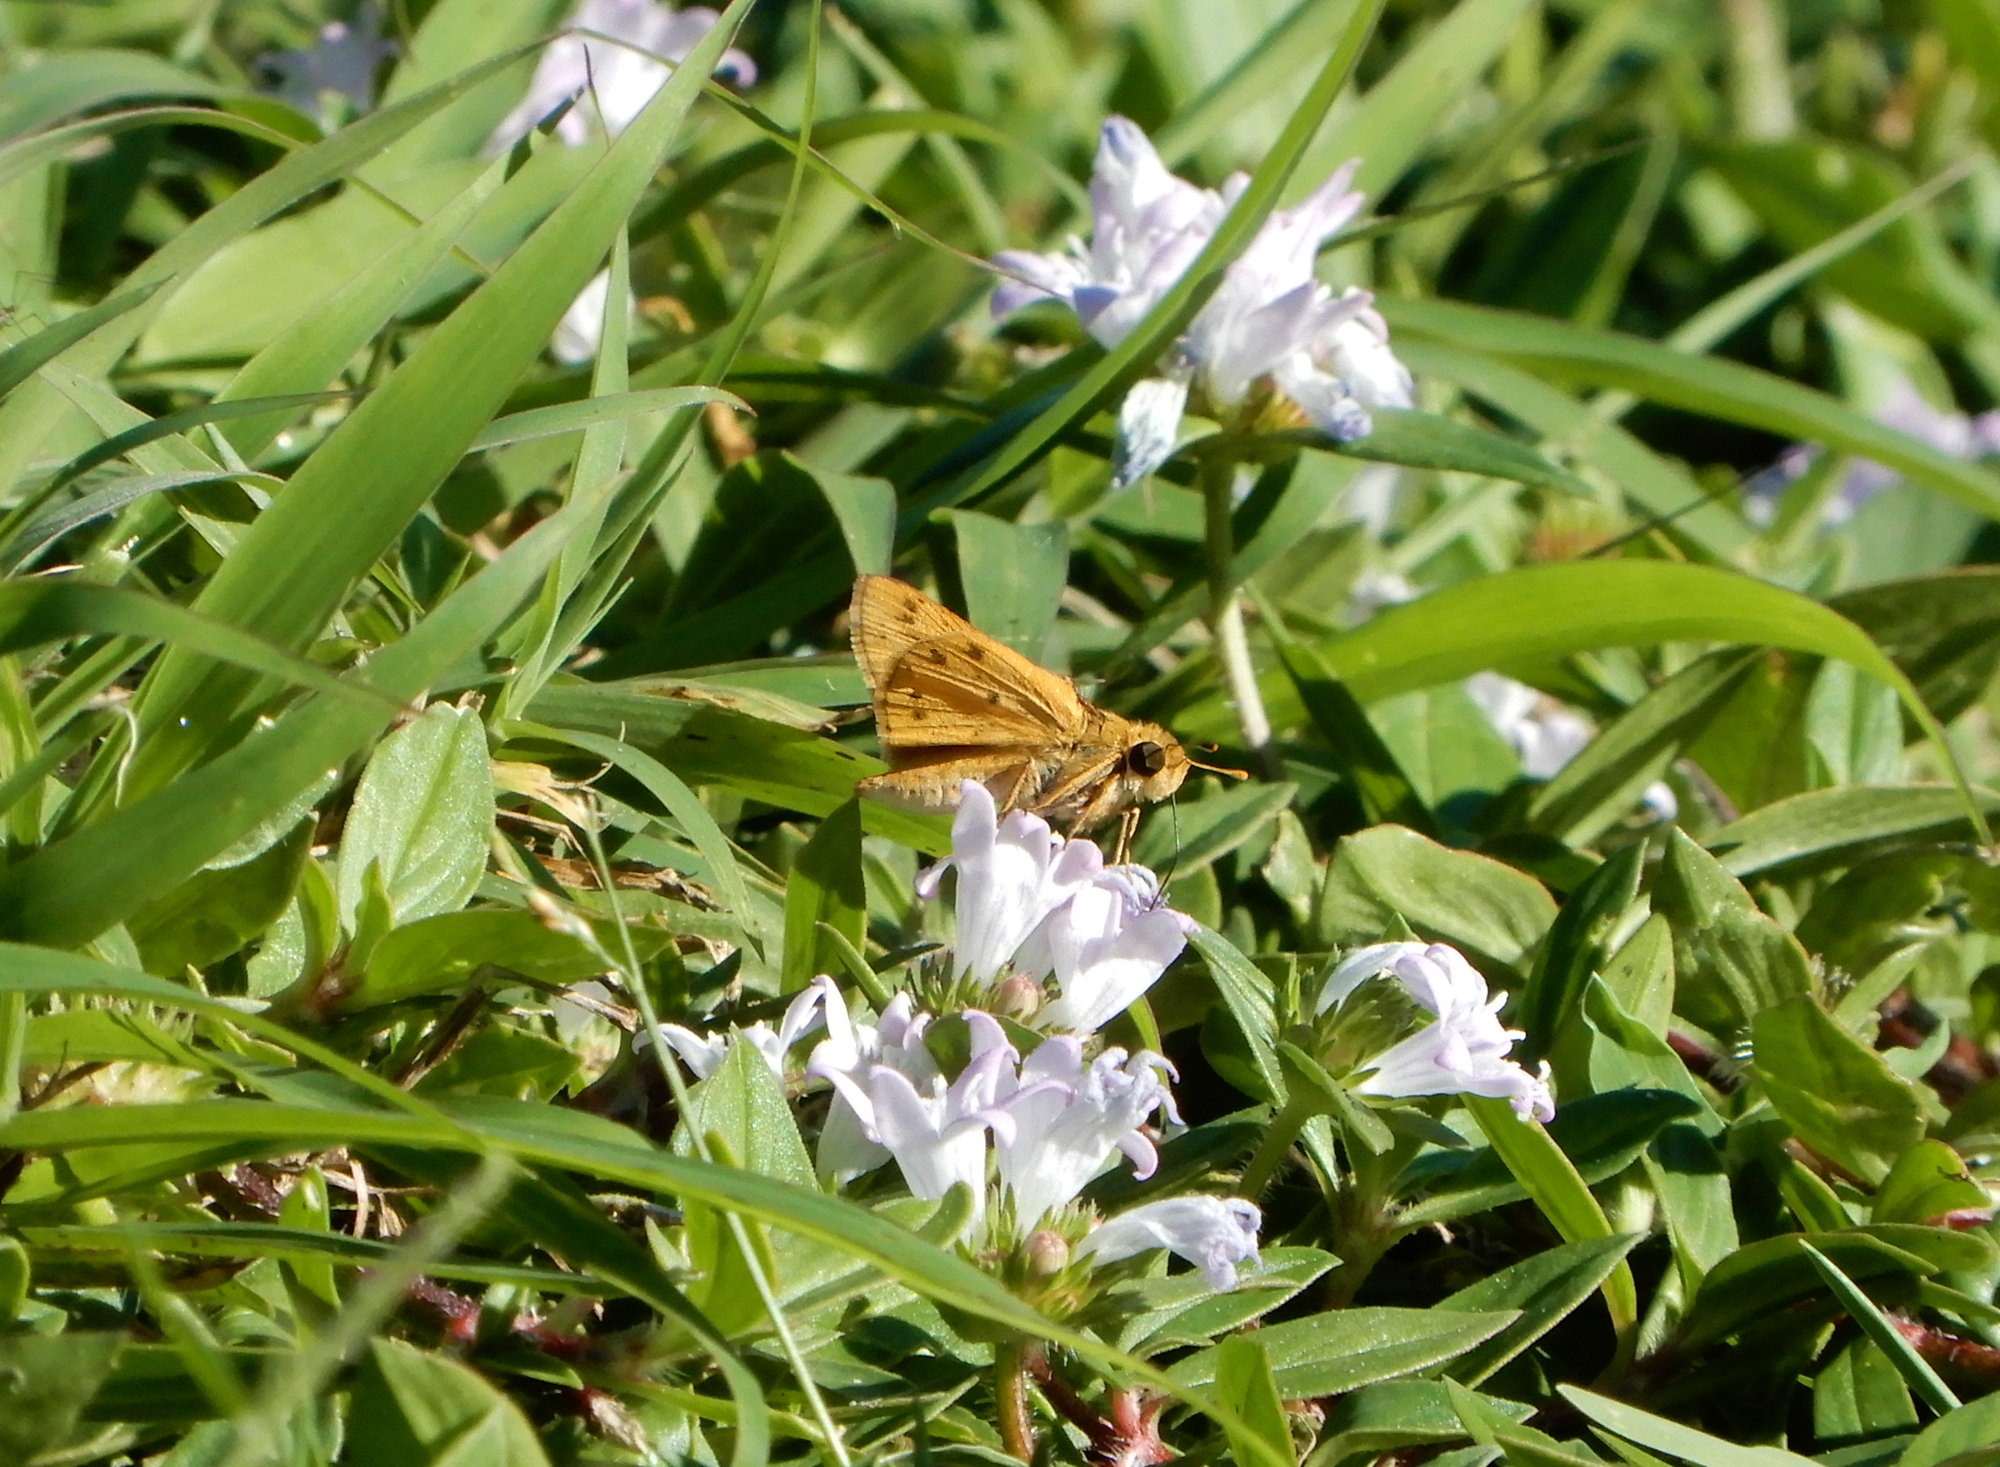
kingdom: Animalia
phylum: Arthropoda
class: Insecta
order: Lepidoptera
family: Hesperiidae
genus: Hylephila
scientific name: Hylephila phyleus
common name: Fiery skipper
